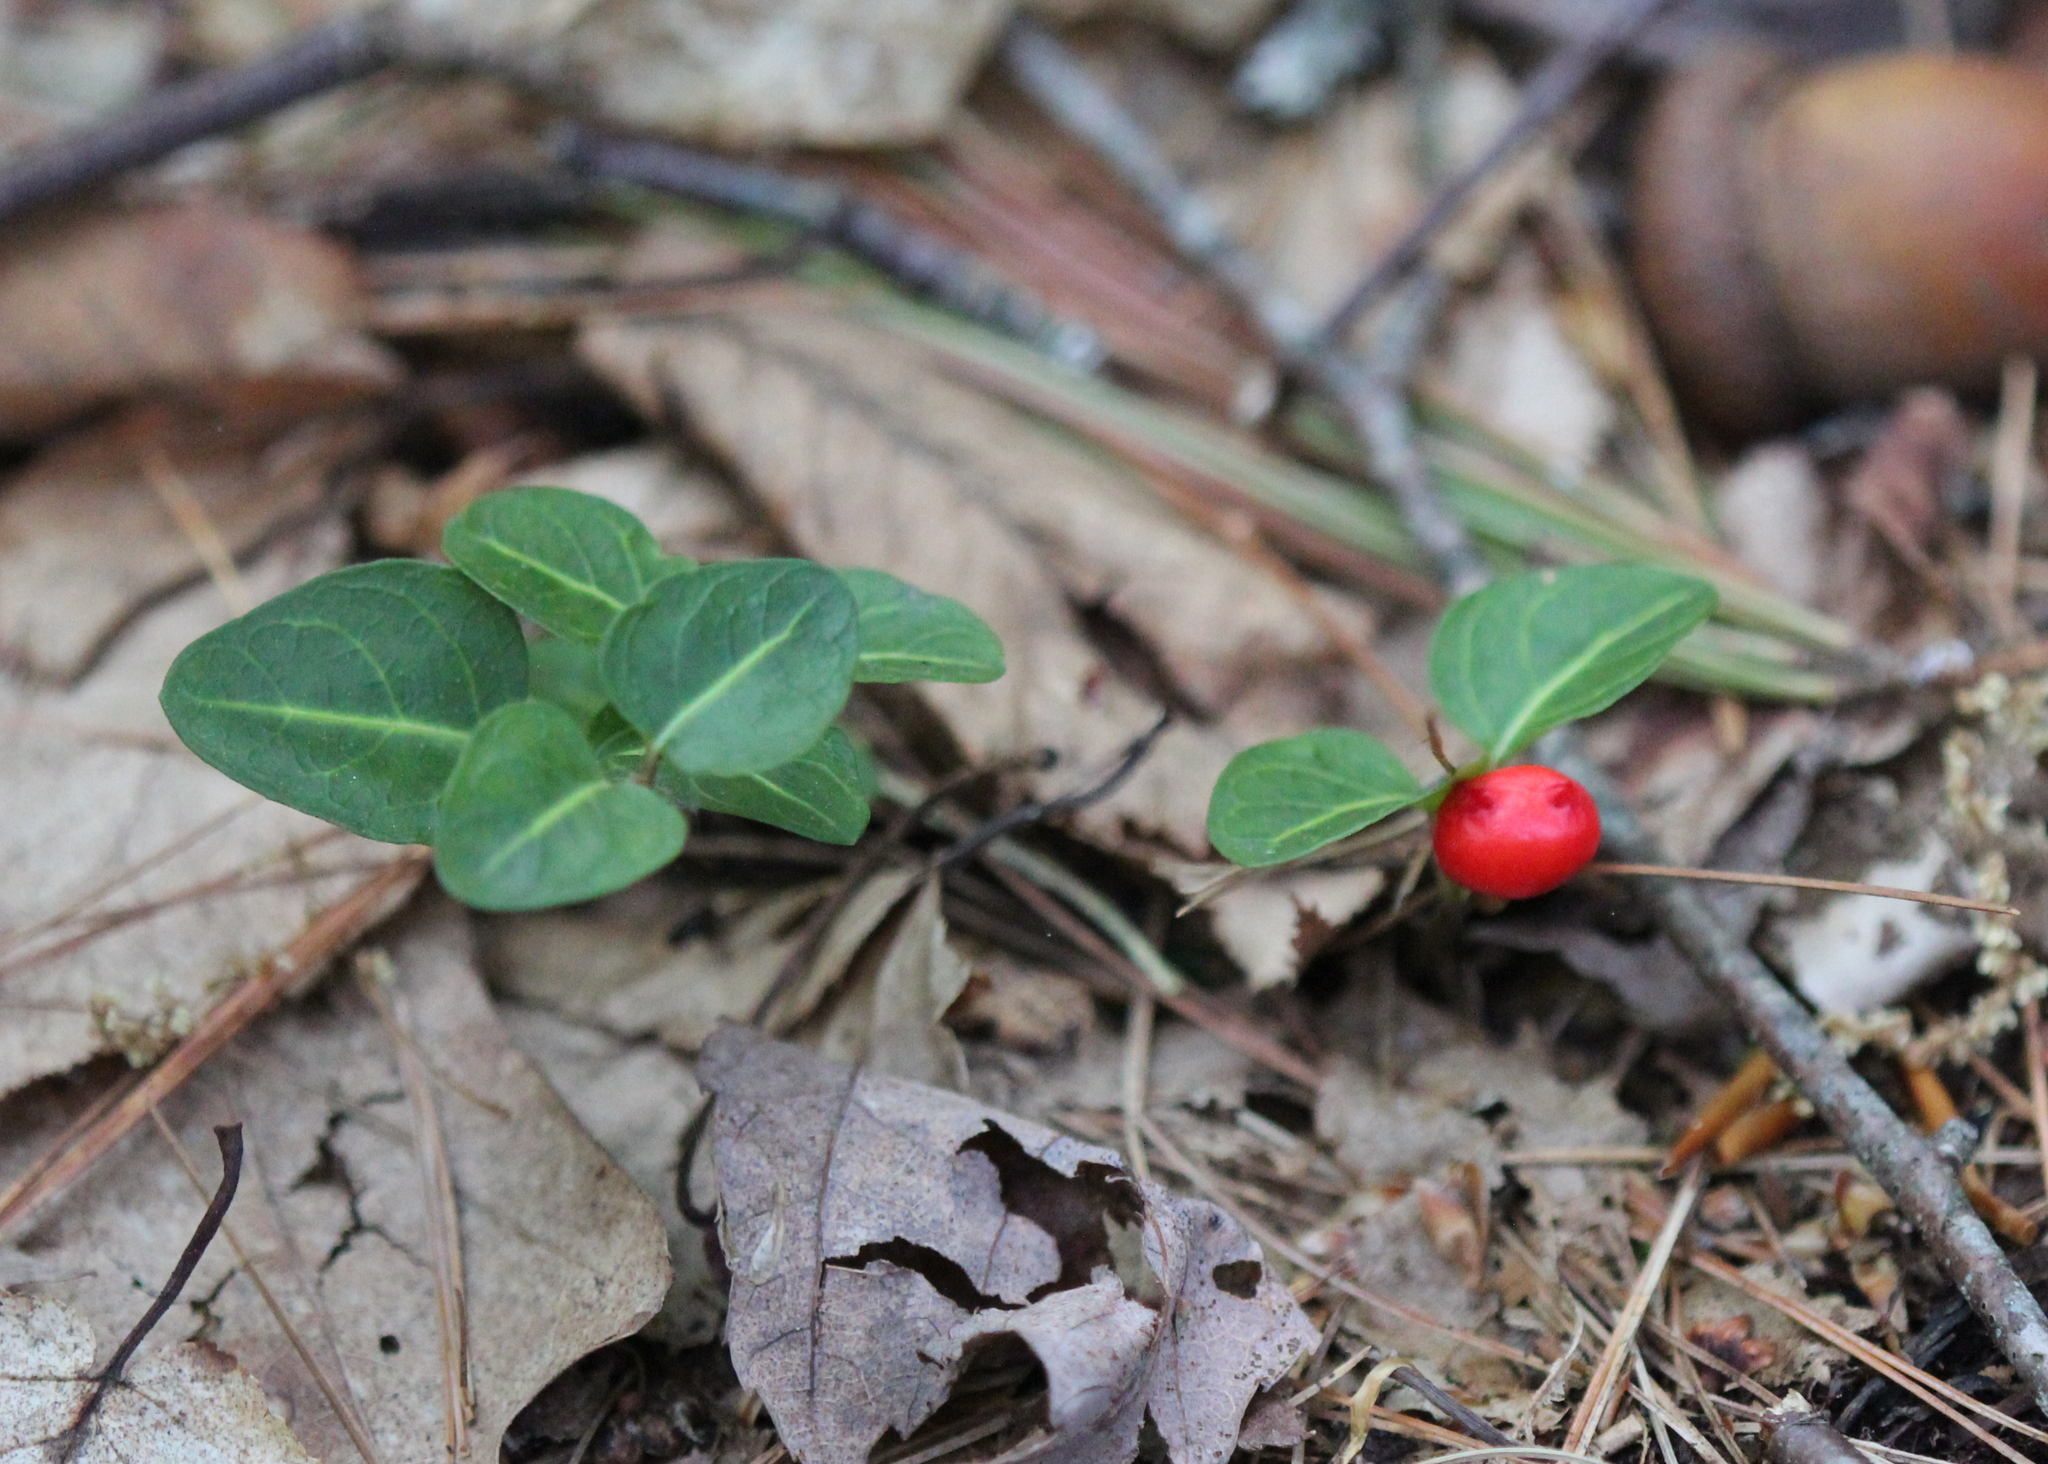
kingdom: Plantae
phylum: Tracheophyta
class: Magnoliopsida
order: Gentianales
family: Rubiaceae
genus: Mitchella
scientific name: Mitchella repens
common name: Partridge-berry
